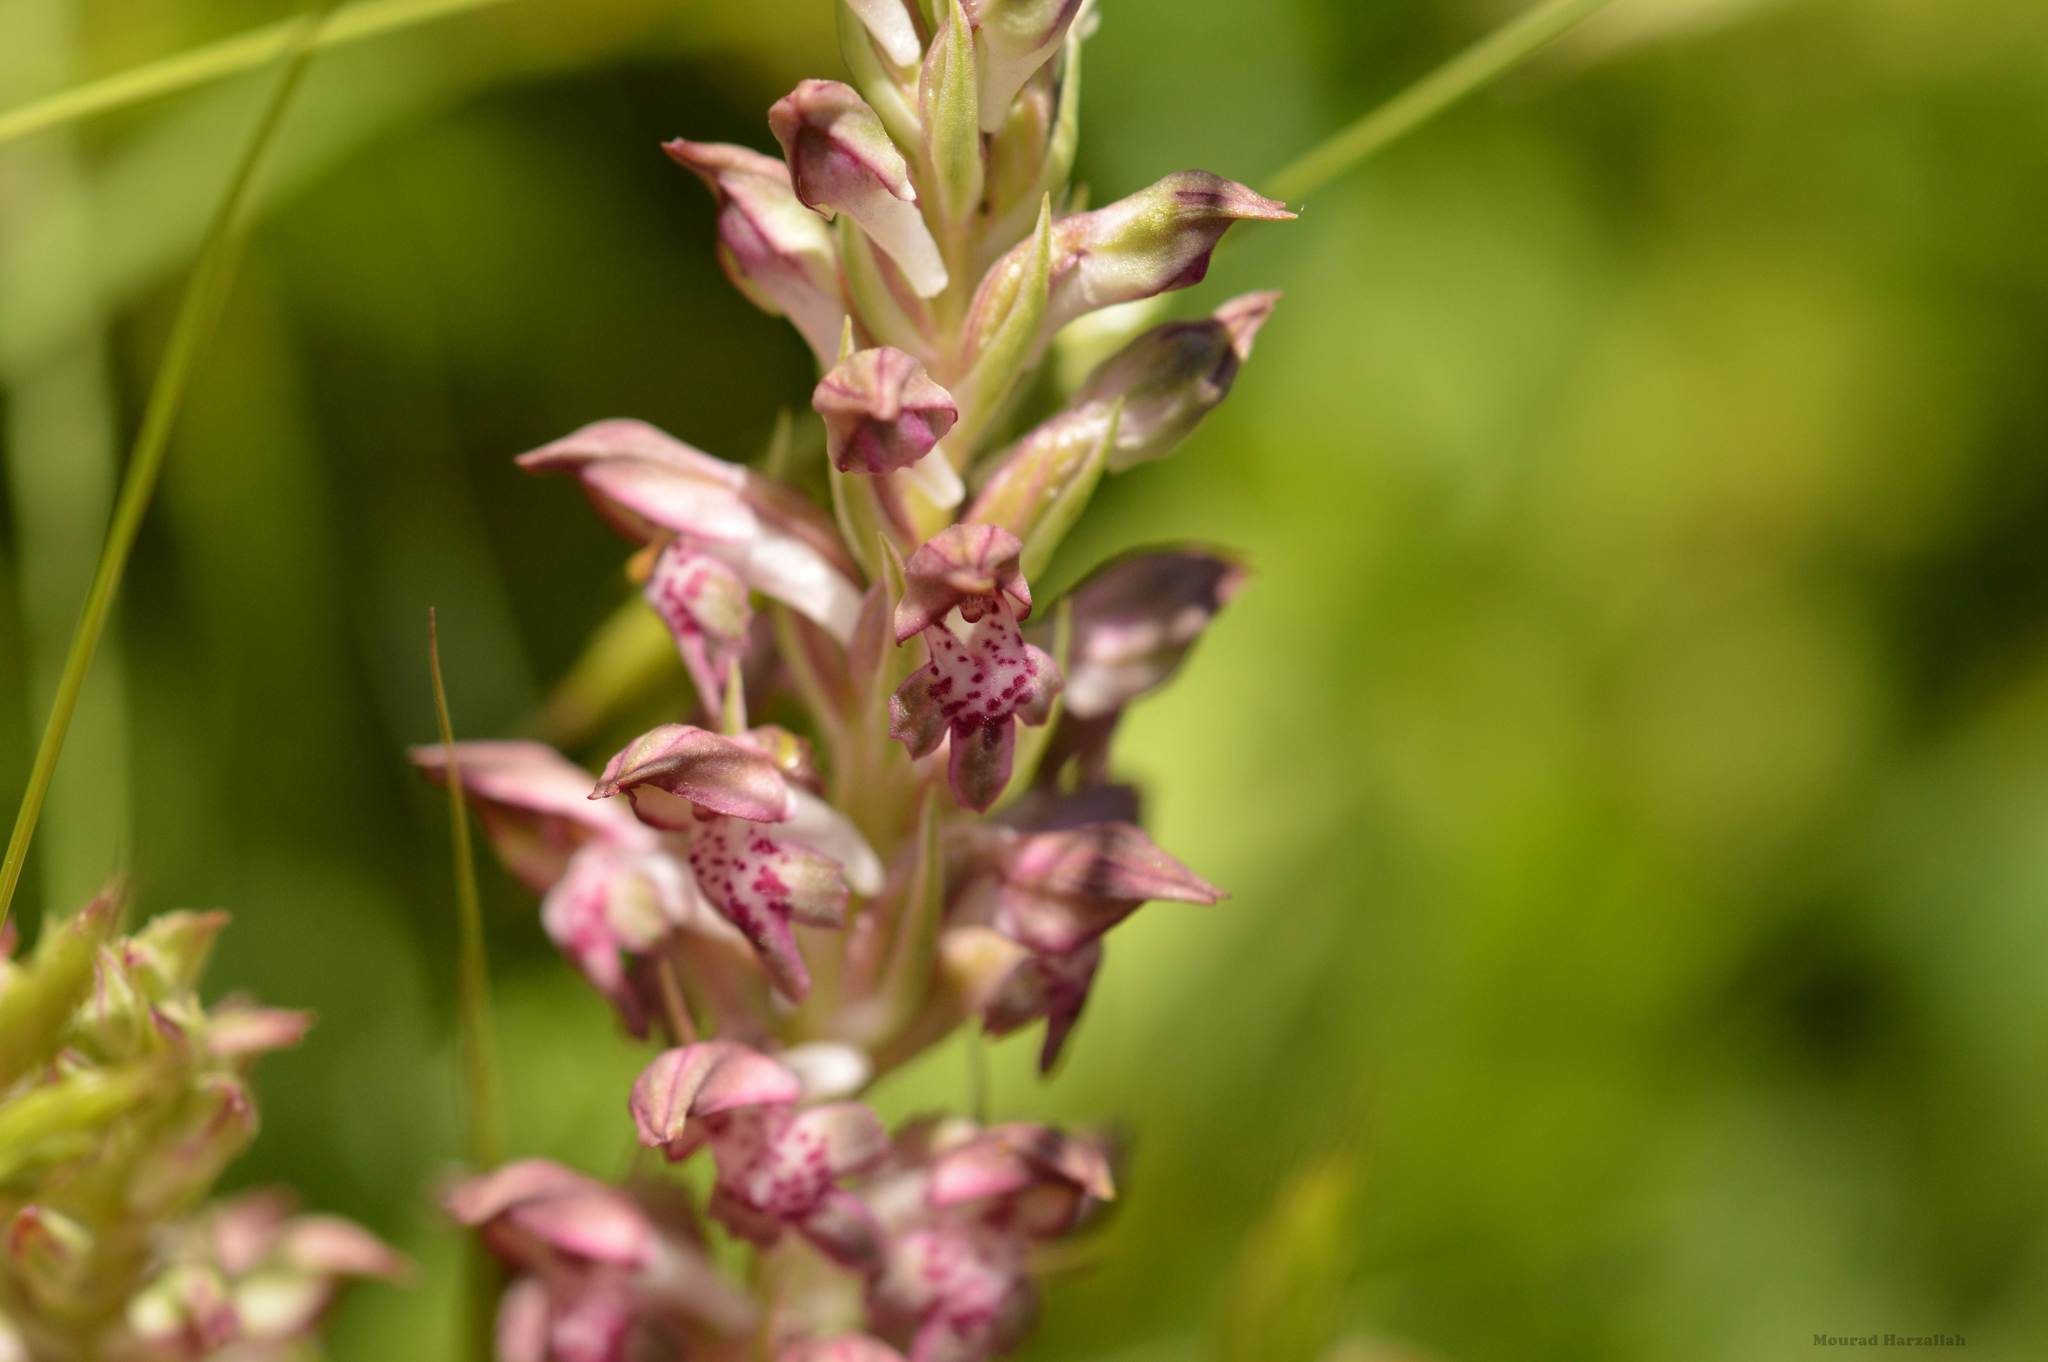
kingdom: Plantae
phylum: Tracheophyta
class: Liliopsida
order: Asparagales
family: Orchidaceae
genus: Anacamptis
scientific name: Anacamptis coriophora
